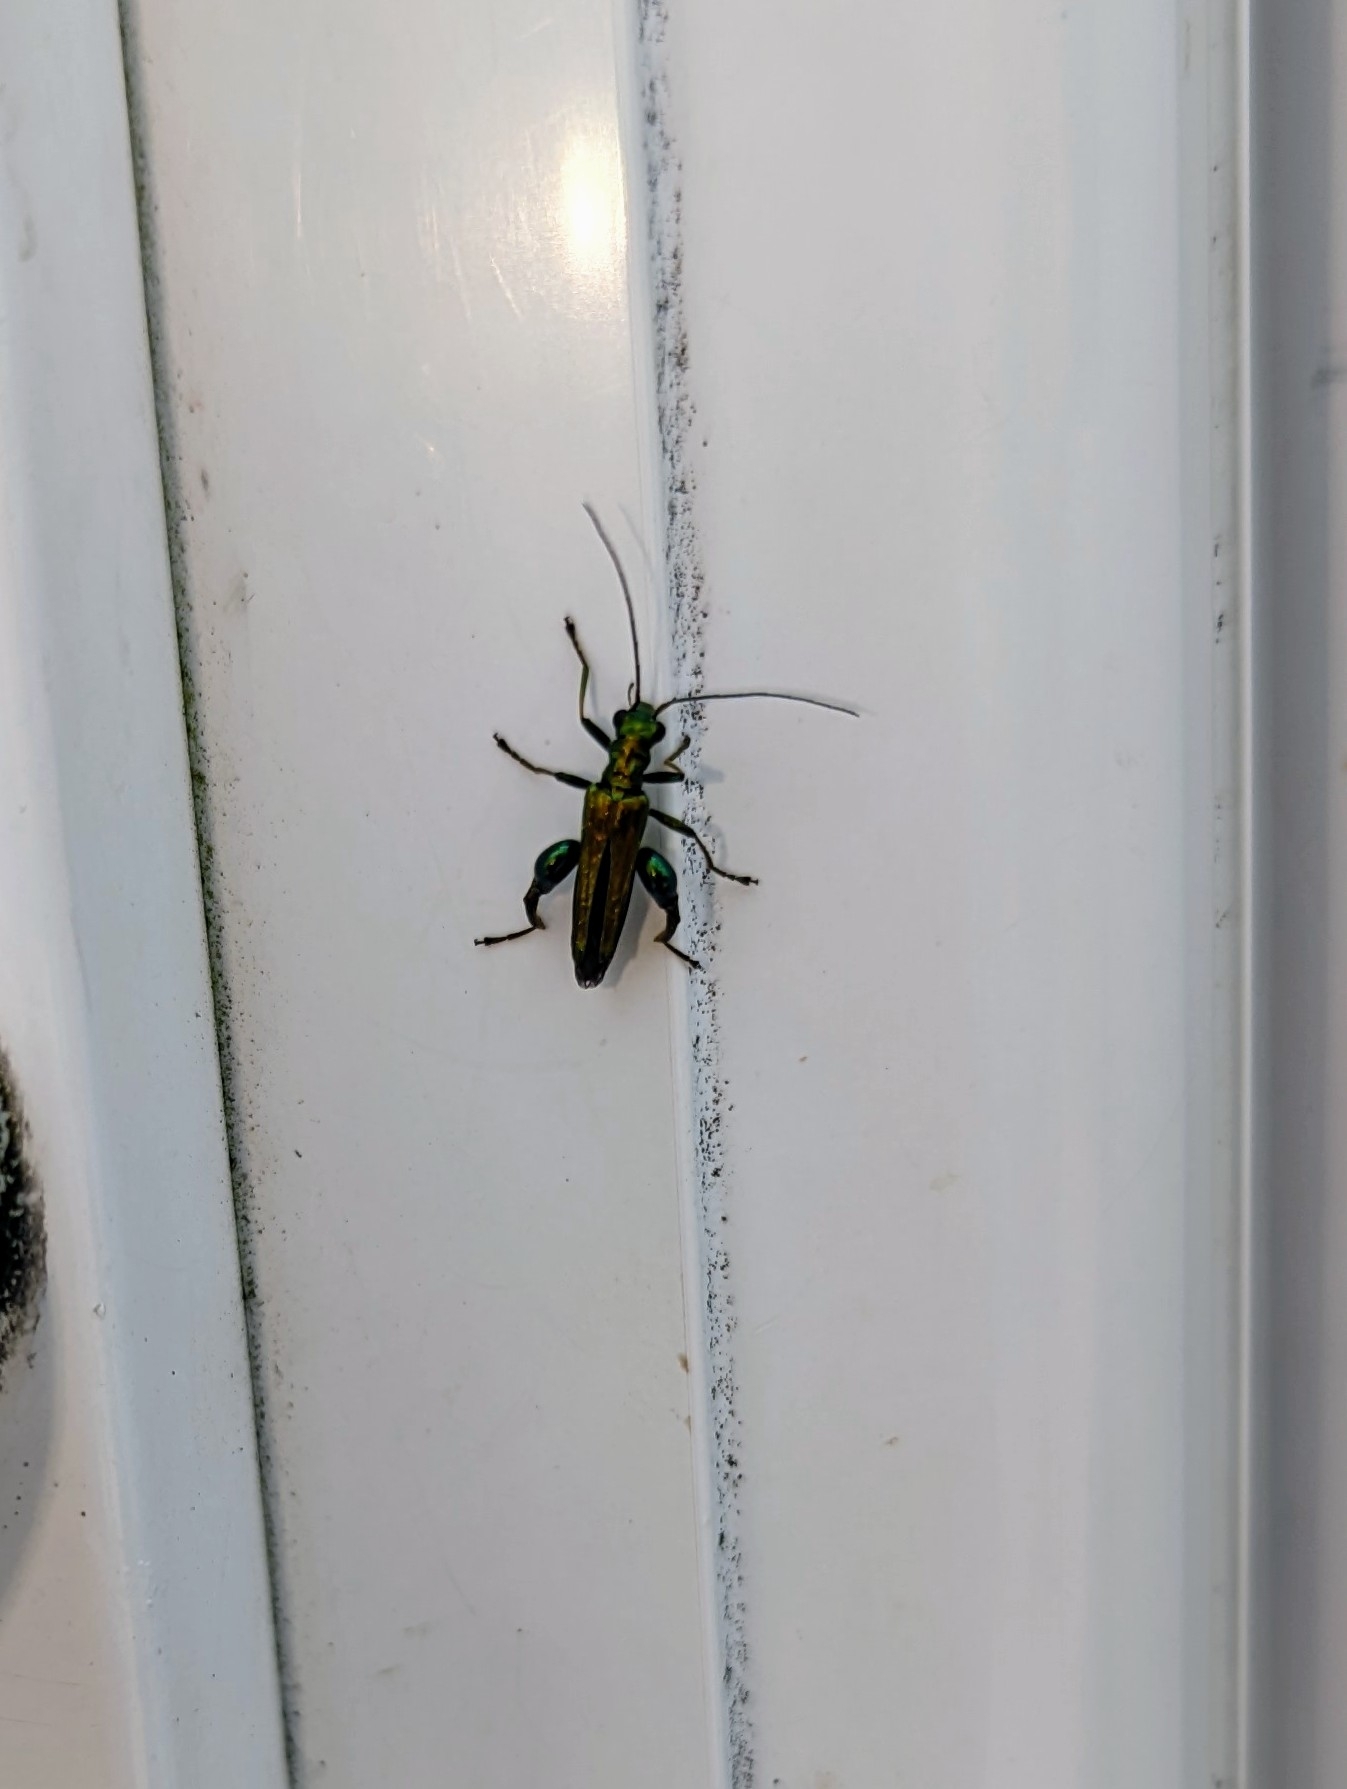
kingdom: Animalia
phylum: Arthropoda
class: Insecta
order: Coleoptera
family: Oedemeridae
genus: Oedemera
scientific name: Oedemera nobilis
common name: Swollen-thighed beetle
